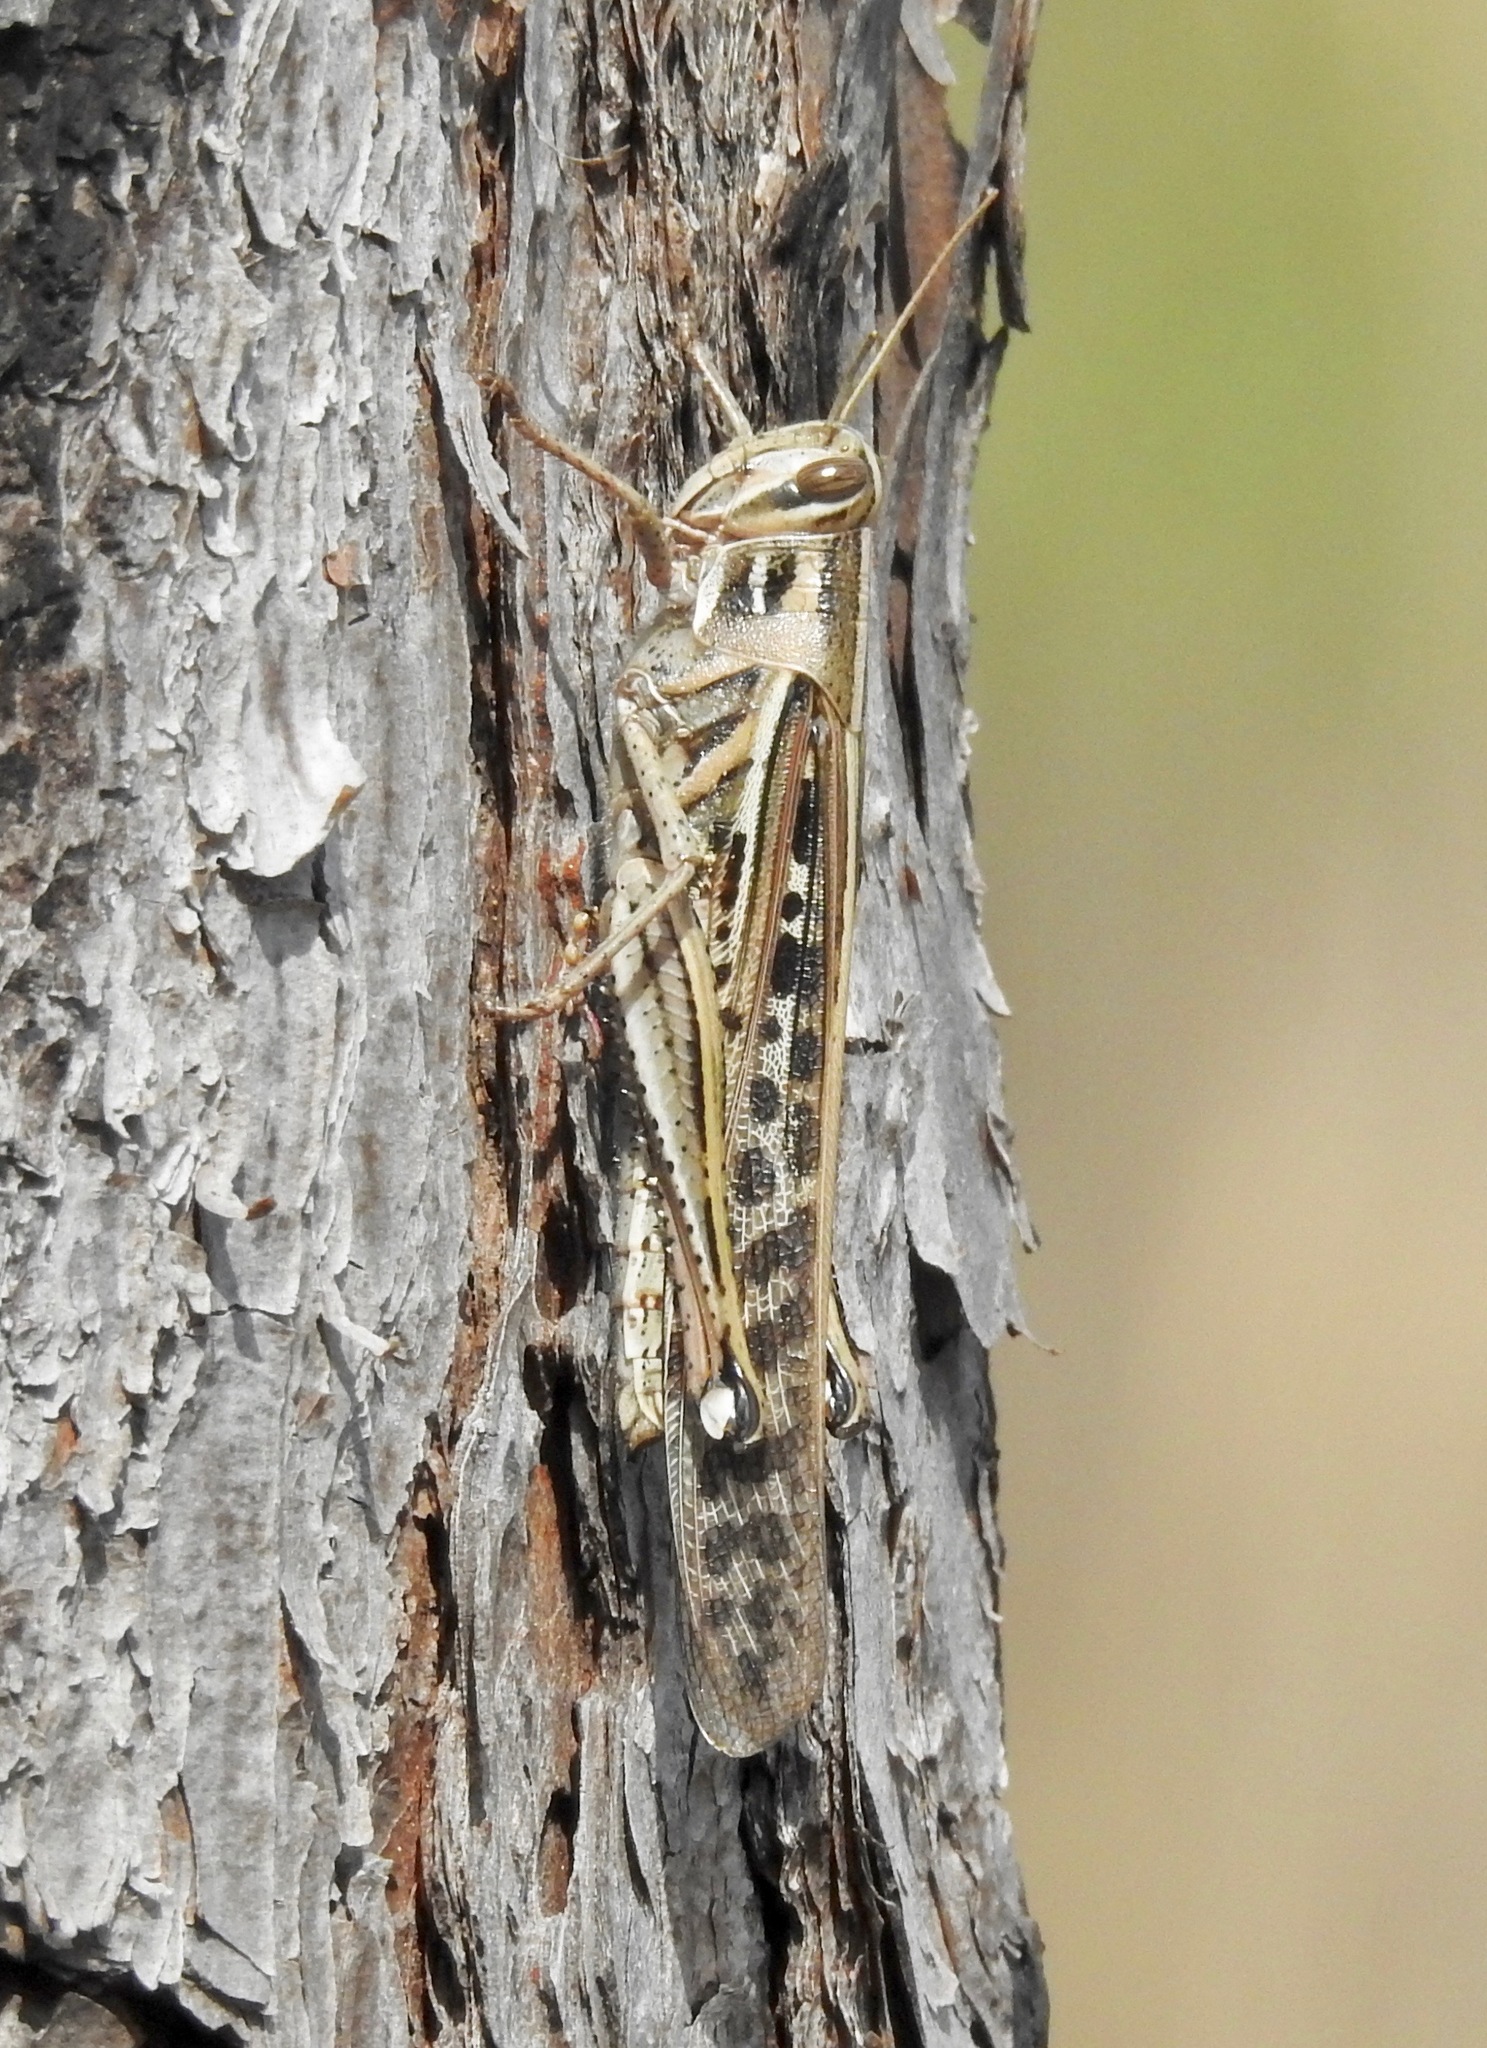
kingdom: Animalia
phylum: Arthropoda
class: Insecta
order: Orthoptera
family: Acrididae
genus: Schistocerca
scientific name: Schistocerca americana
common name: American bird locust
